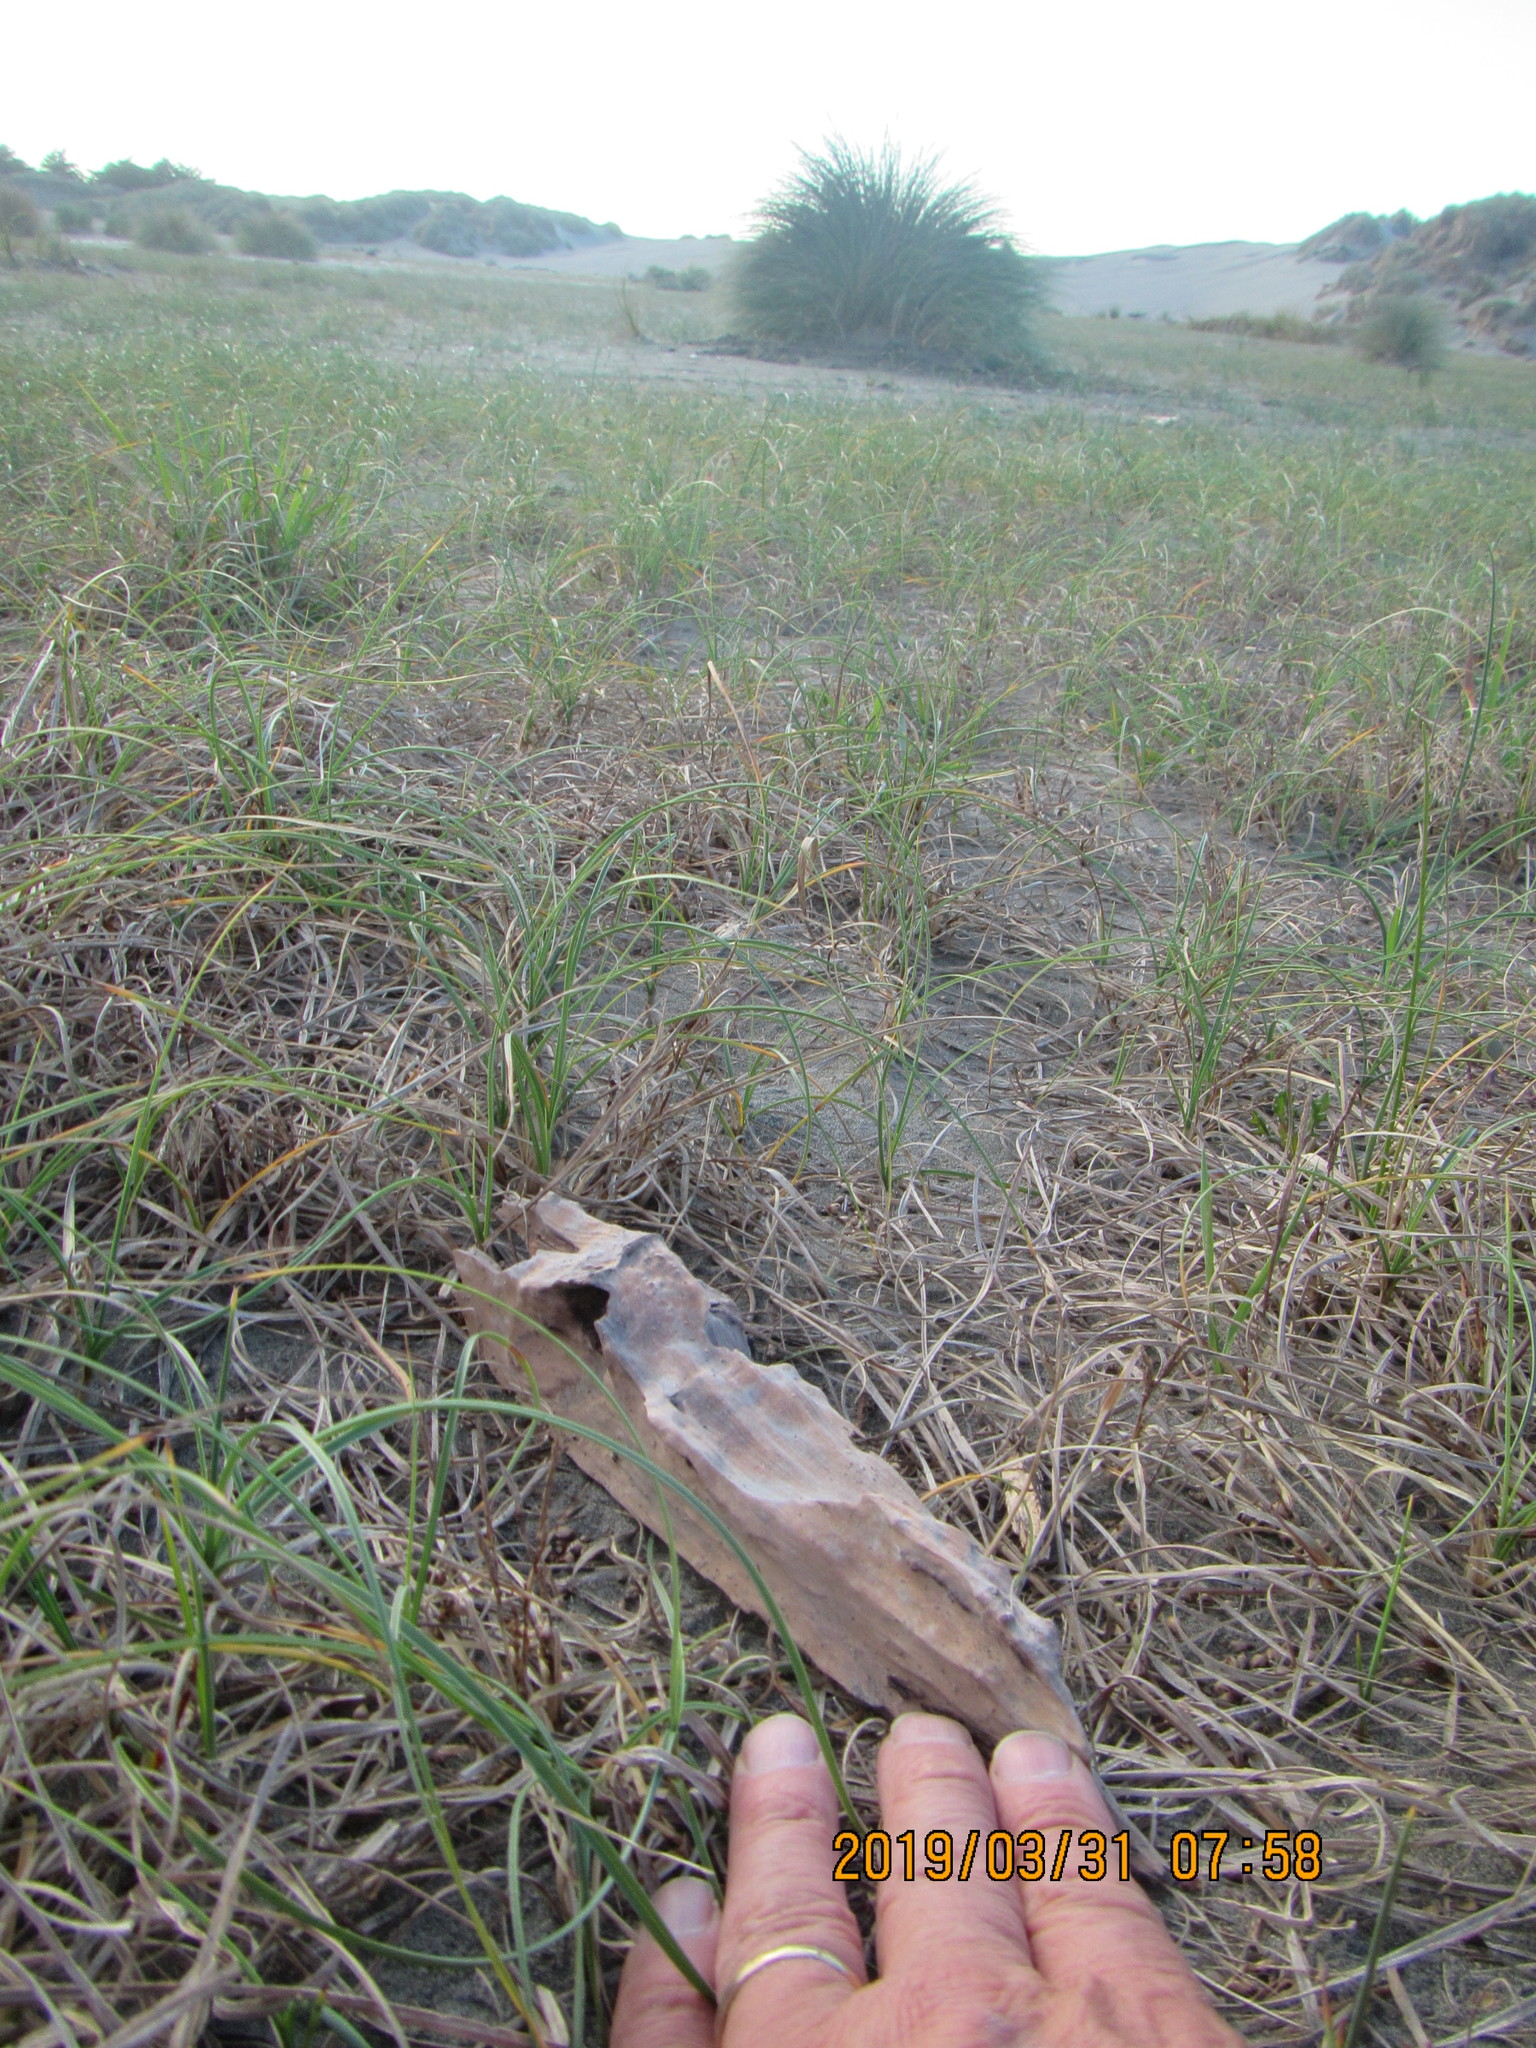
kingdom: Animalia
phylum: Arthropoda
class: Arachnida
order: Araneae
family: Theridiidae
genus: Latrodectus
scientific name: Latrodectus katipo
